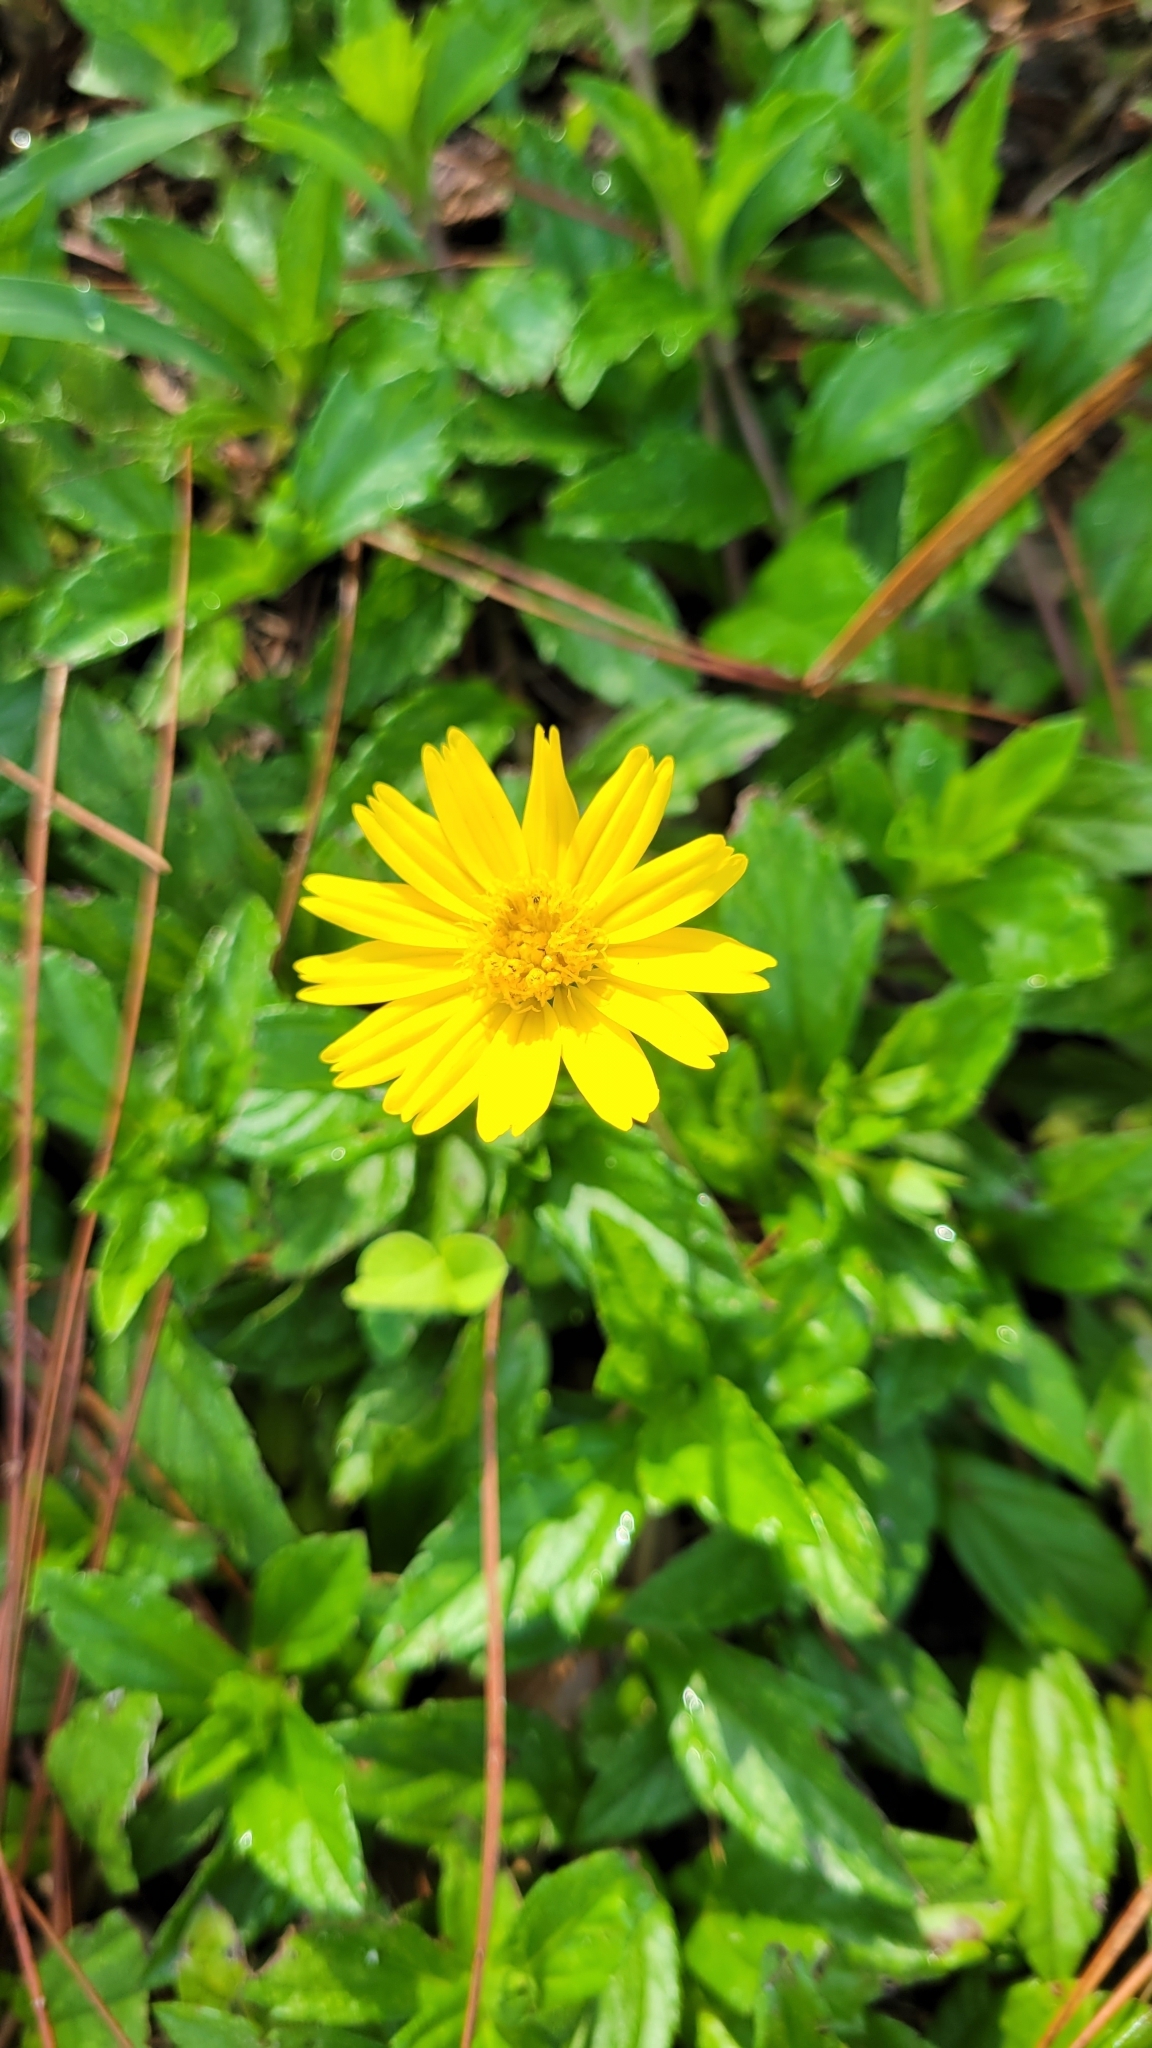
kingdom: Plantae
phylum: Tracheophyta
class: Magnoliopsida
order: Asterales
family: Asteraceae
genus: Sphagneticola
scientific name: Sphagneticola trilobata
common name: Bay biscayne creeping-oxeye
